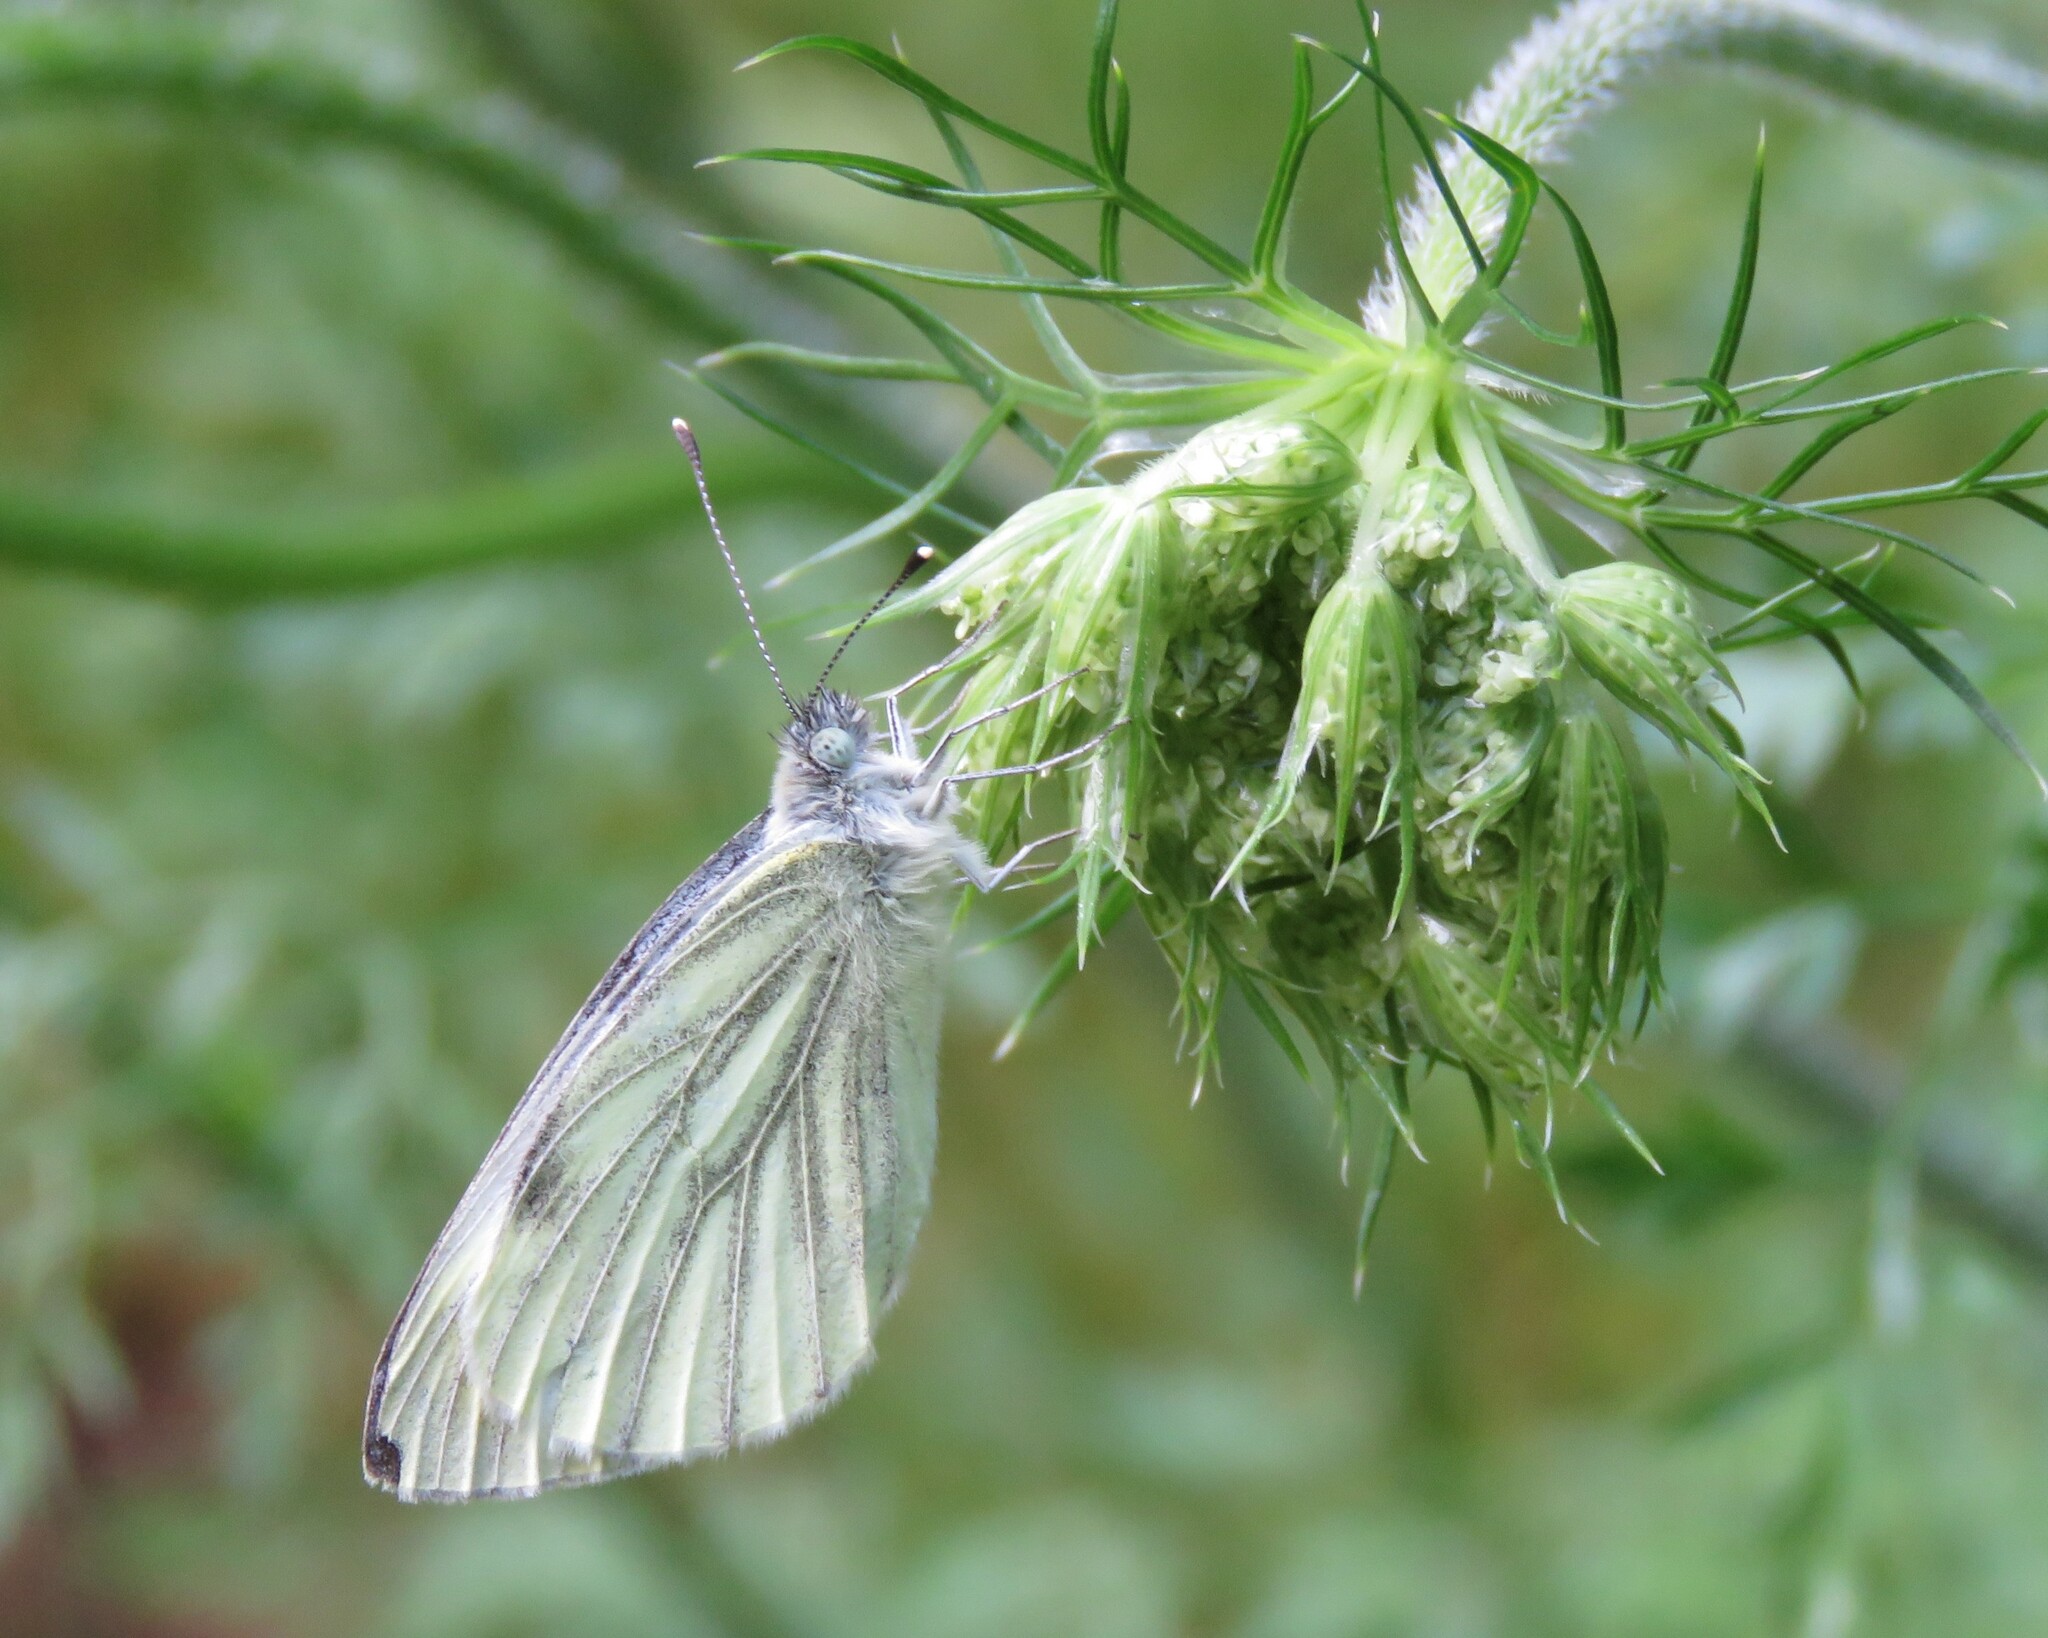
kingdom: Animalia
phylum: Arthropoda
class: Insecta
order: Lepidoptera
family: Pieridae
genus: Pieris
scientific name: Pieris napi
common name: Green-veined white
